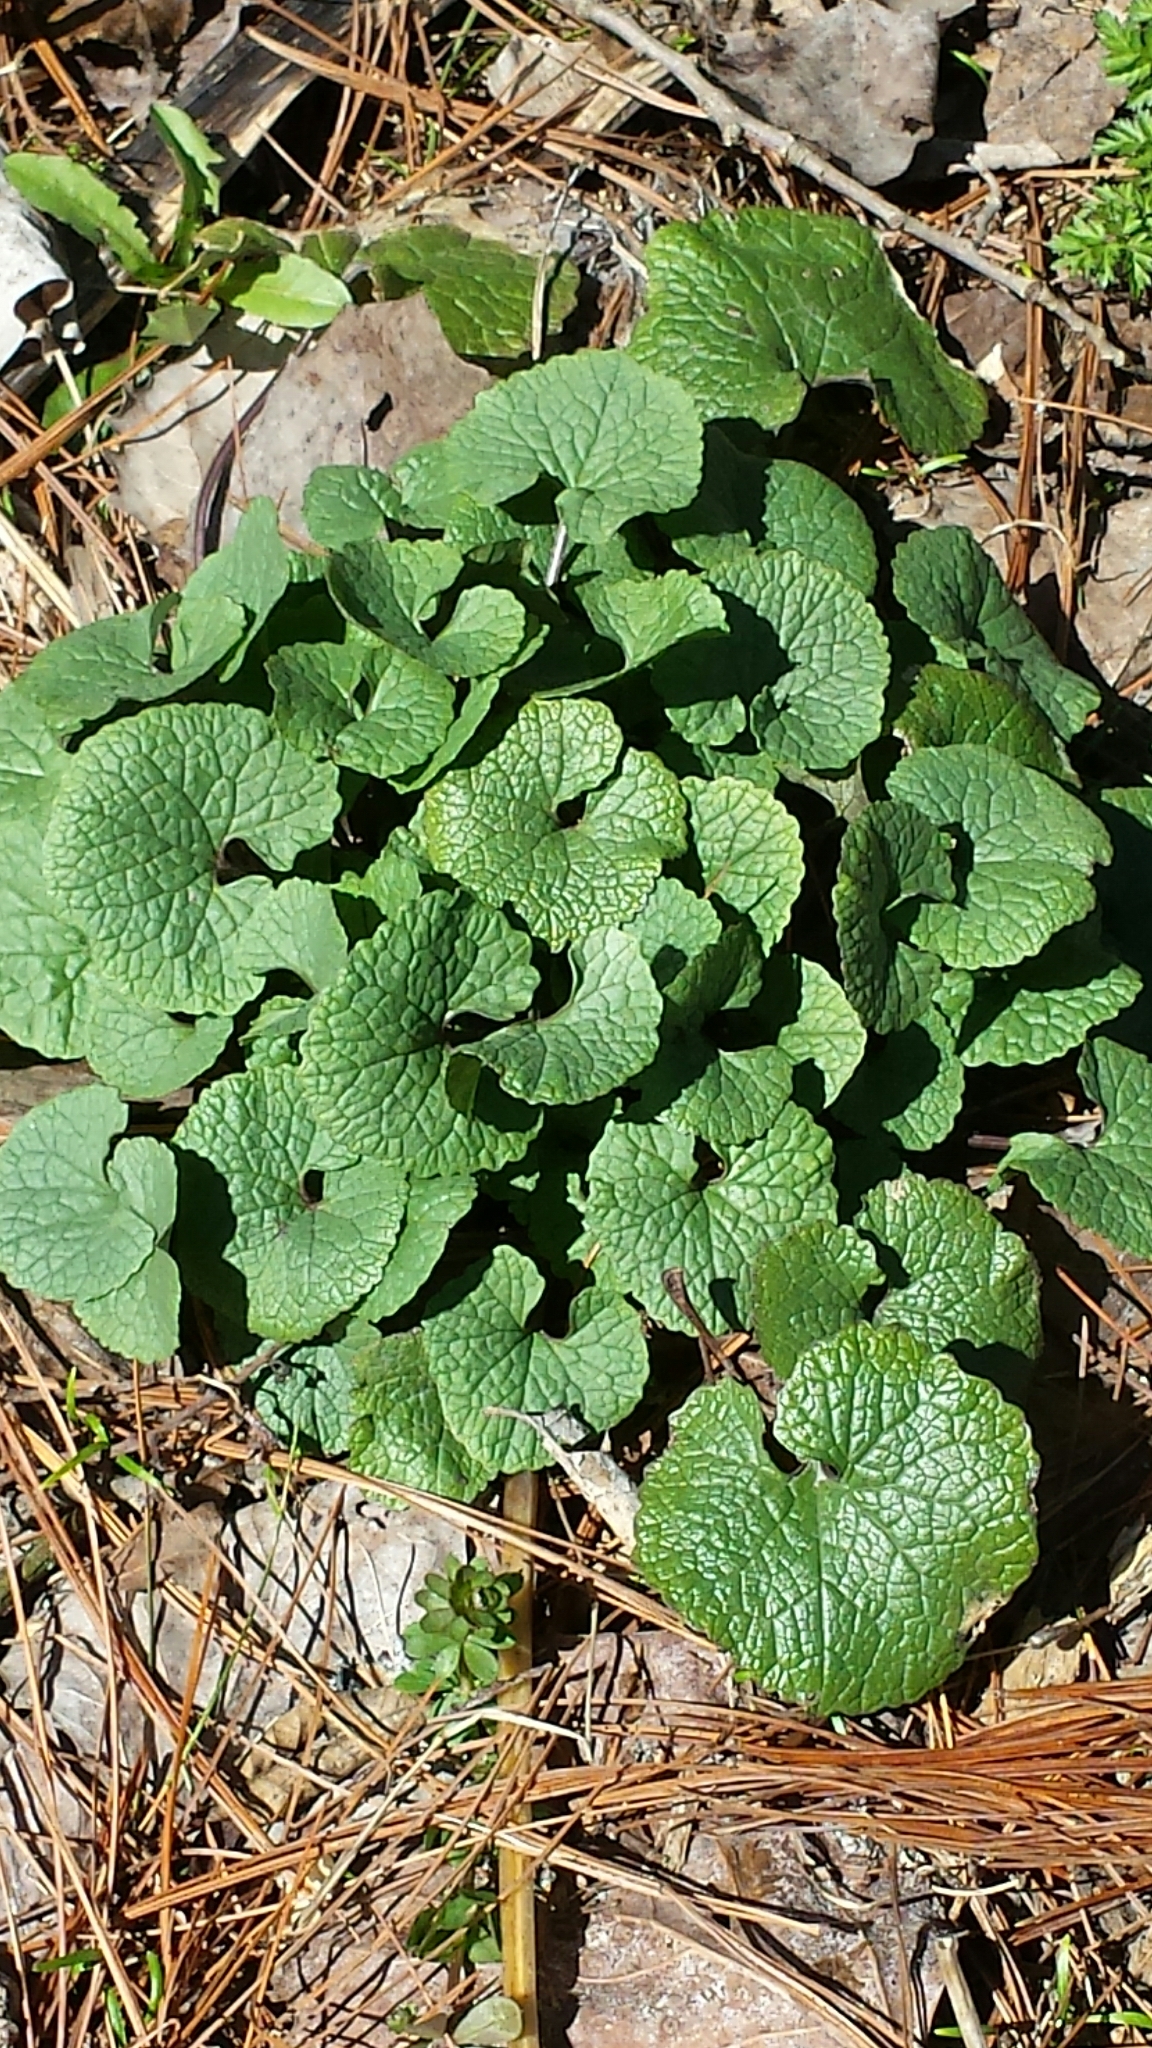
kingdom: Plantae
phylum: Tracheophyta
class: Magnoliopsida
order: Brassicales
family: Brassicaceae
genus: Alliaria
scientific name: Alliaria petiolata
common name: Garlic mustard
